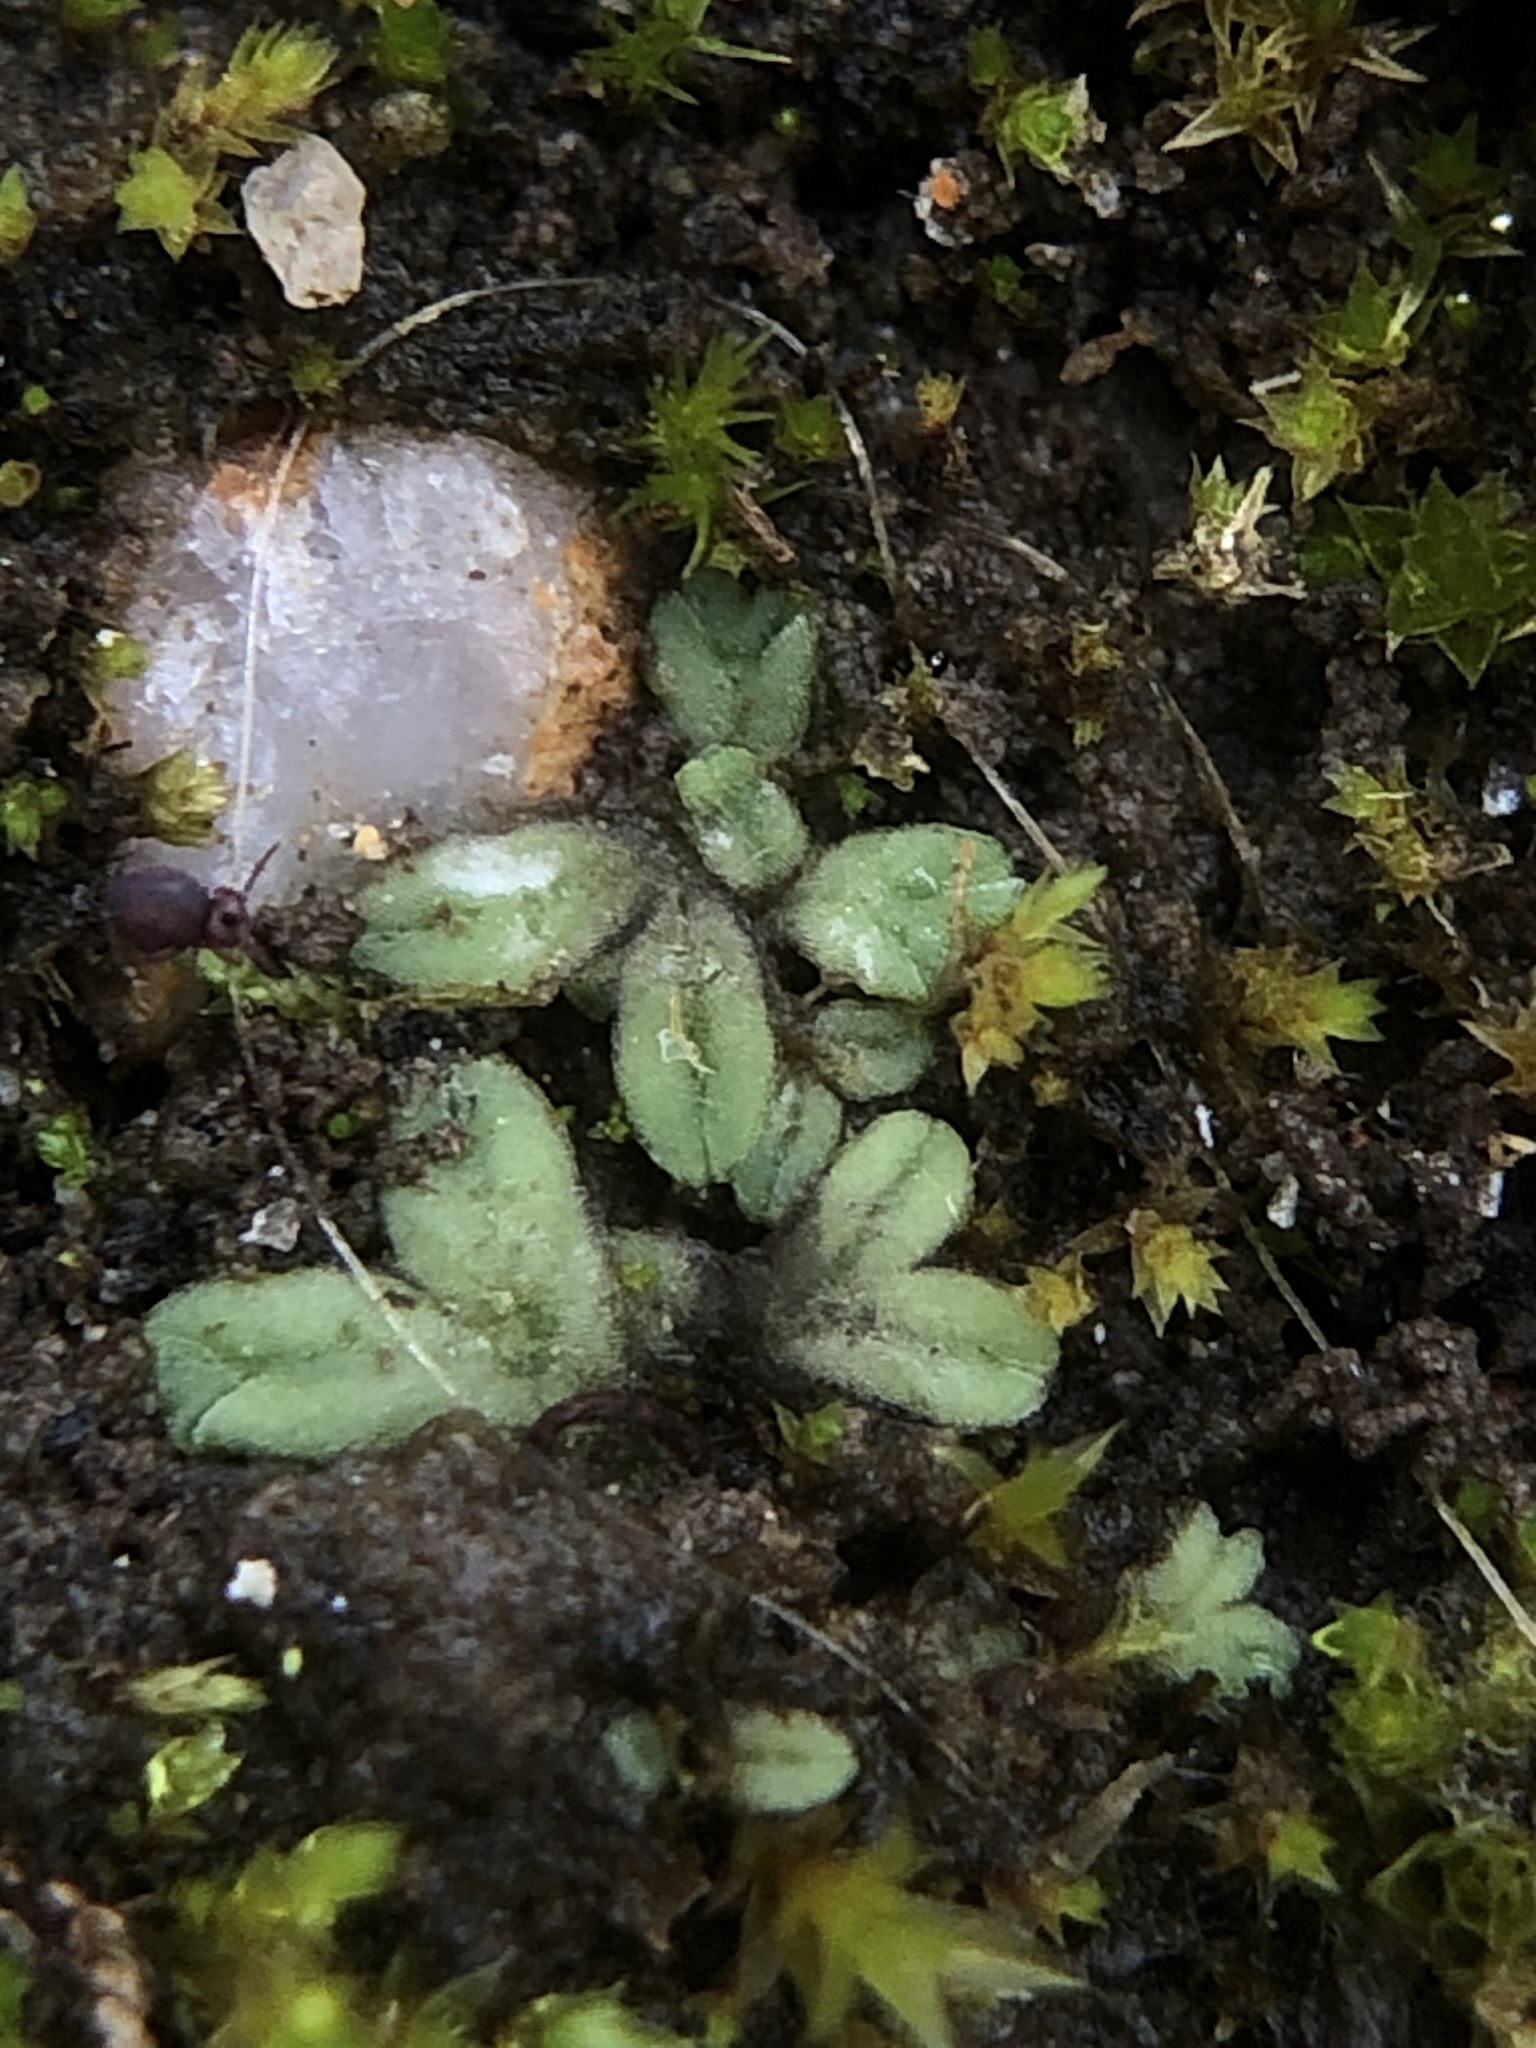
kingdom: Plantae
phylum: Marchantiophyta
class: Marchantiopsida
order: Marchantiales
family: Ricciaceae
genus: Riccia
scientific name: Riccia sorocarpa
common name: Common crystalwort
